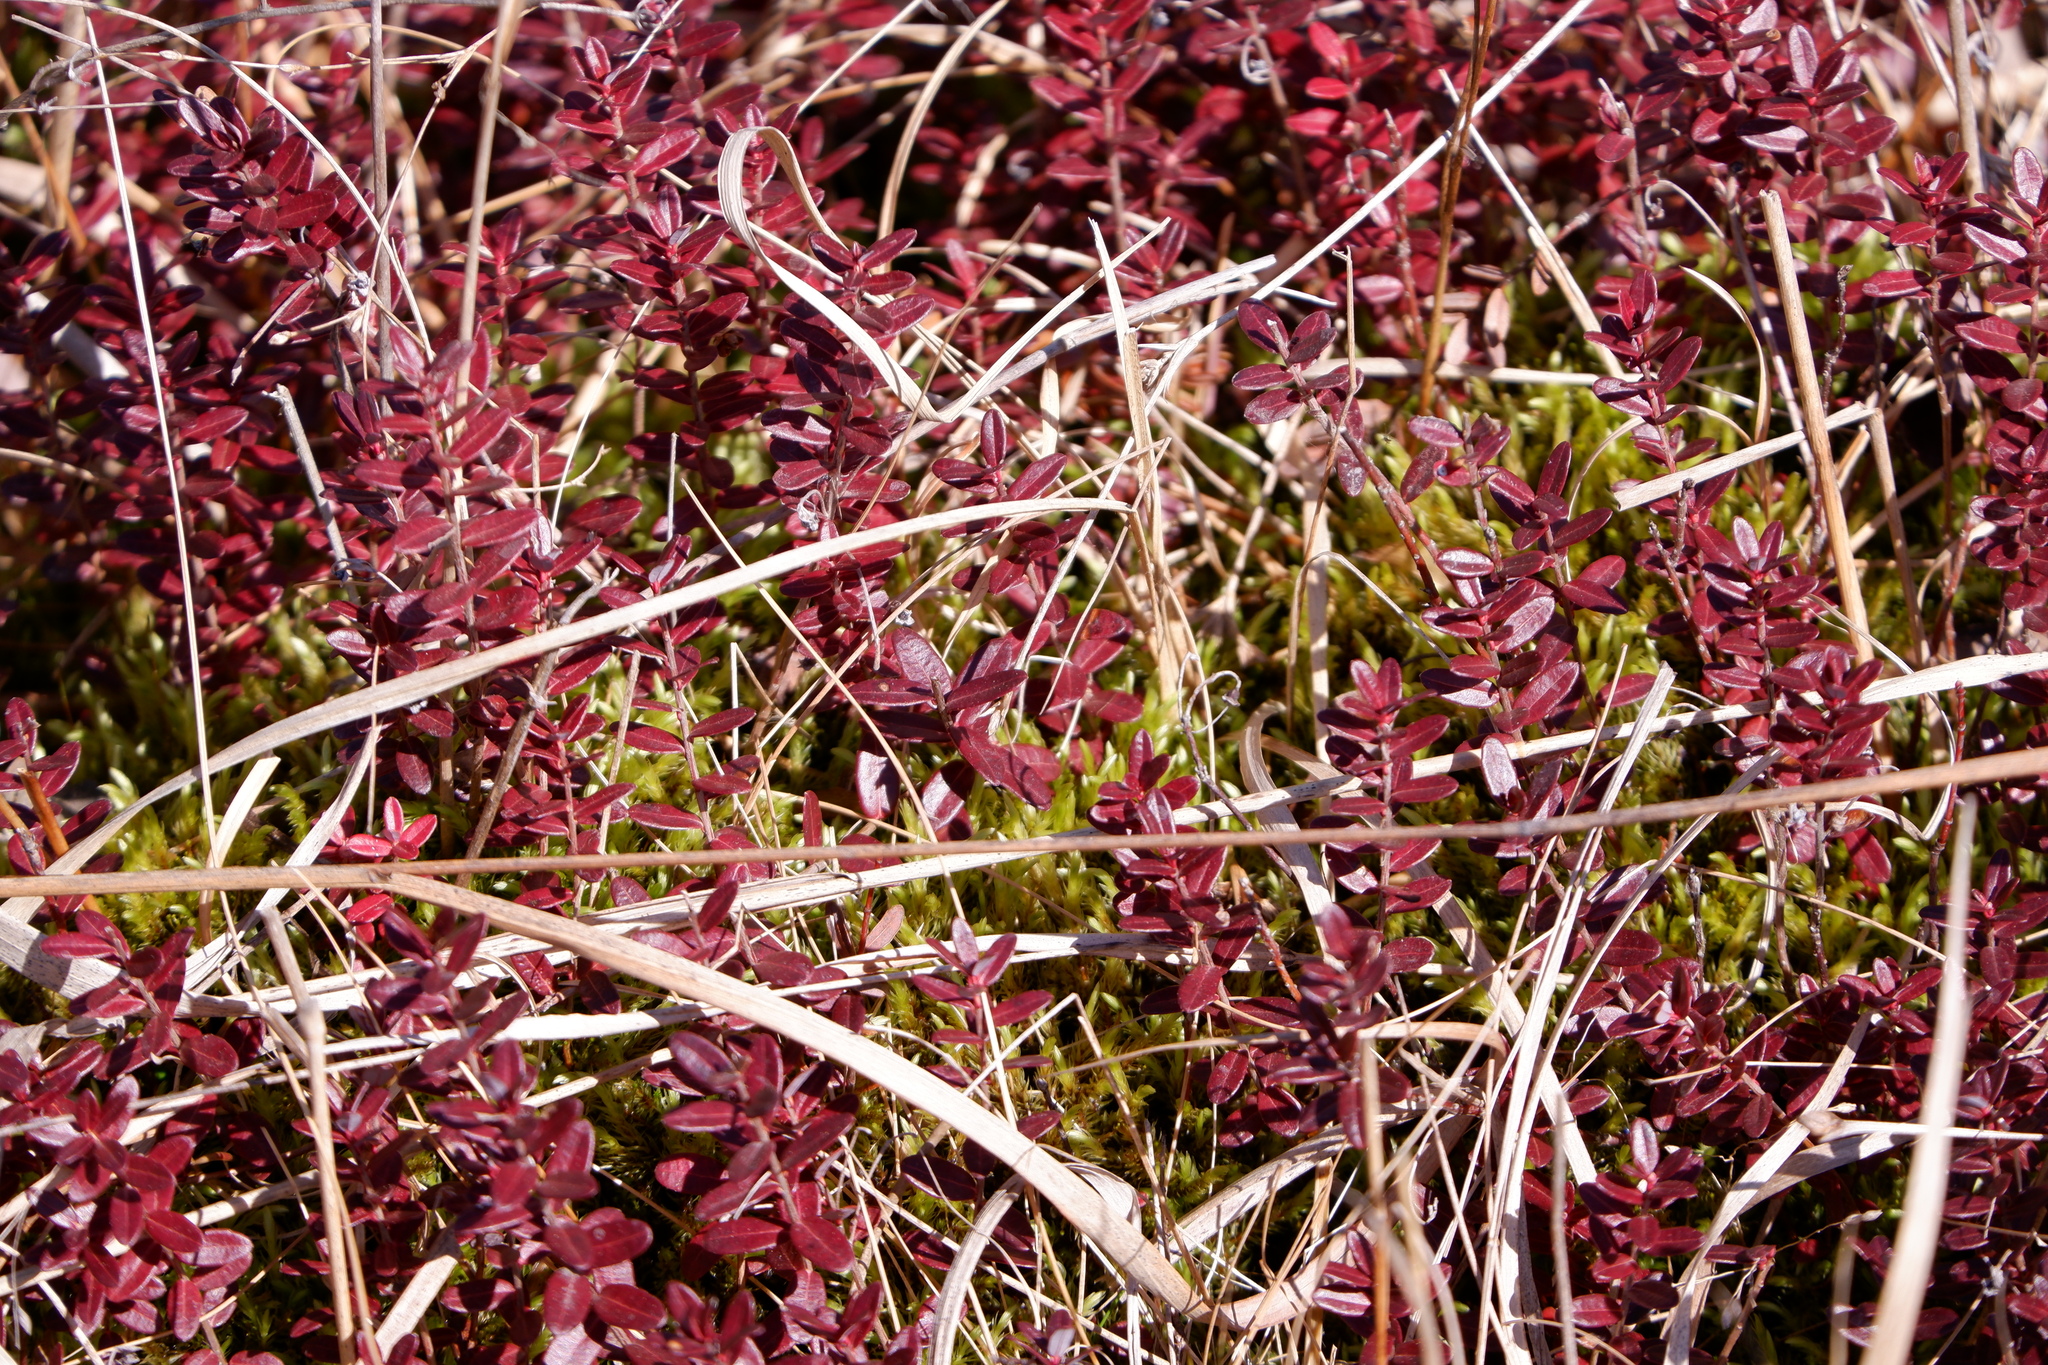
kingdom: Plantae
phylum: Tracheophyta
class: Magnoliopsida
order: Ericales
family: Ericaceae
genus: Vaccinium
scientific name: Vaccinium macrocarpon
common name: American cranberry
